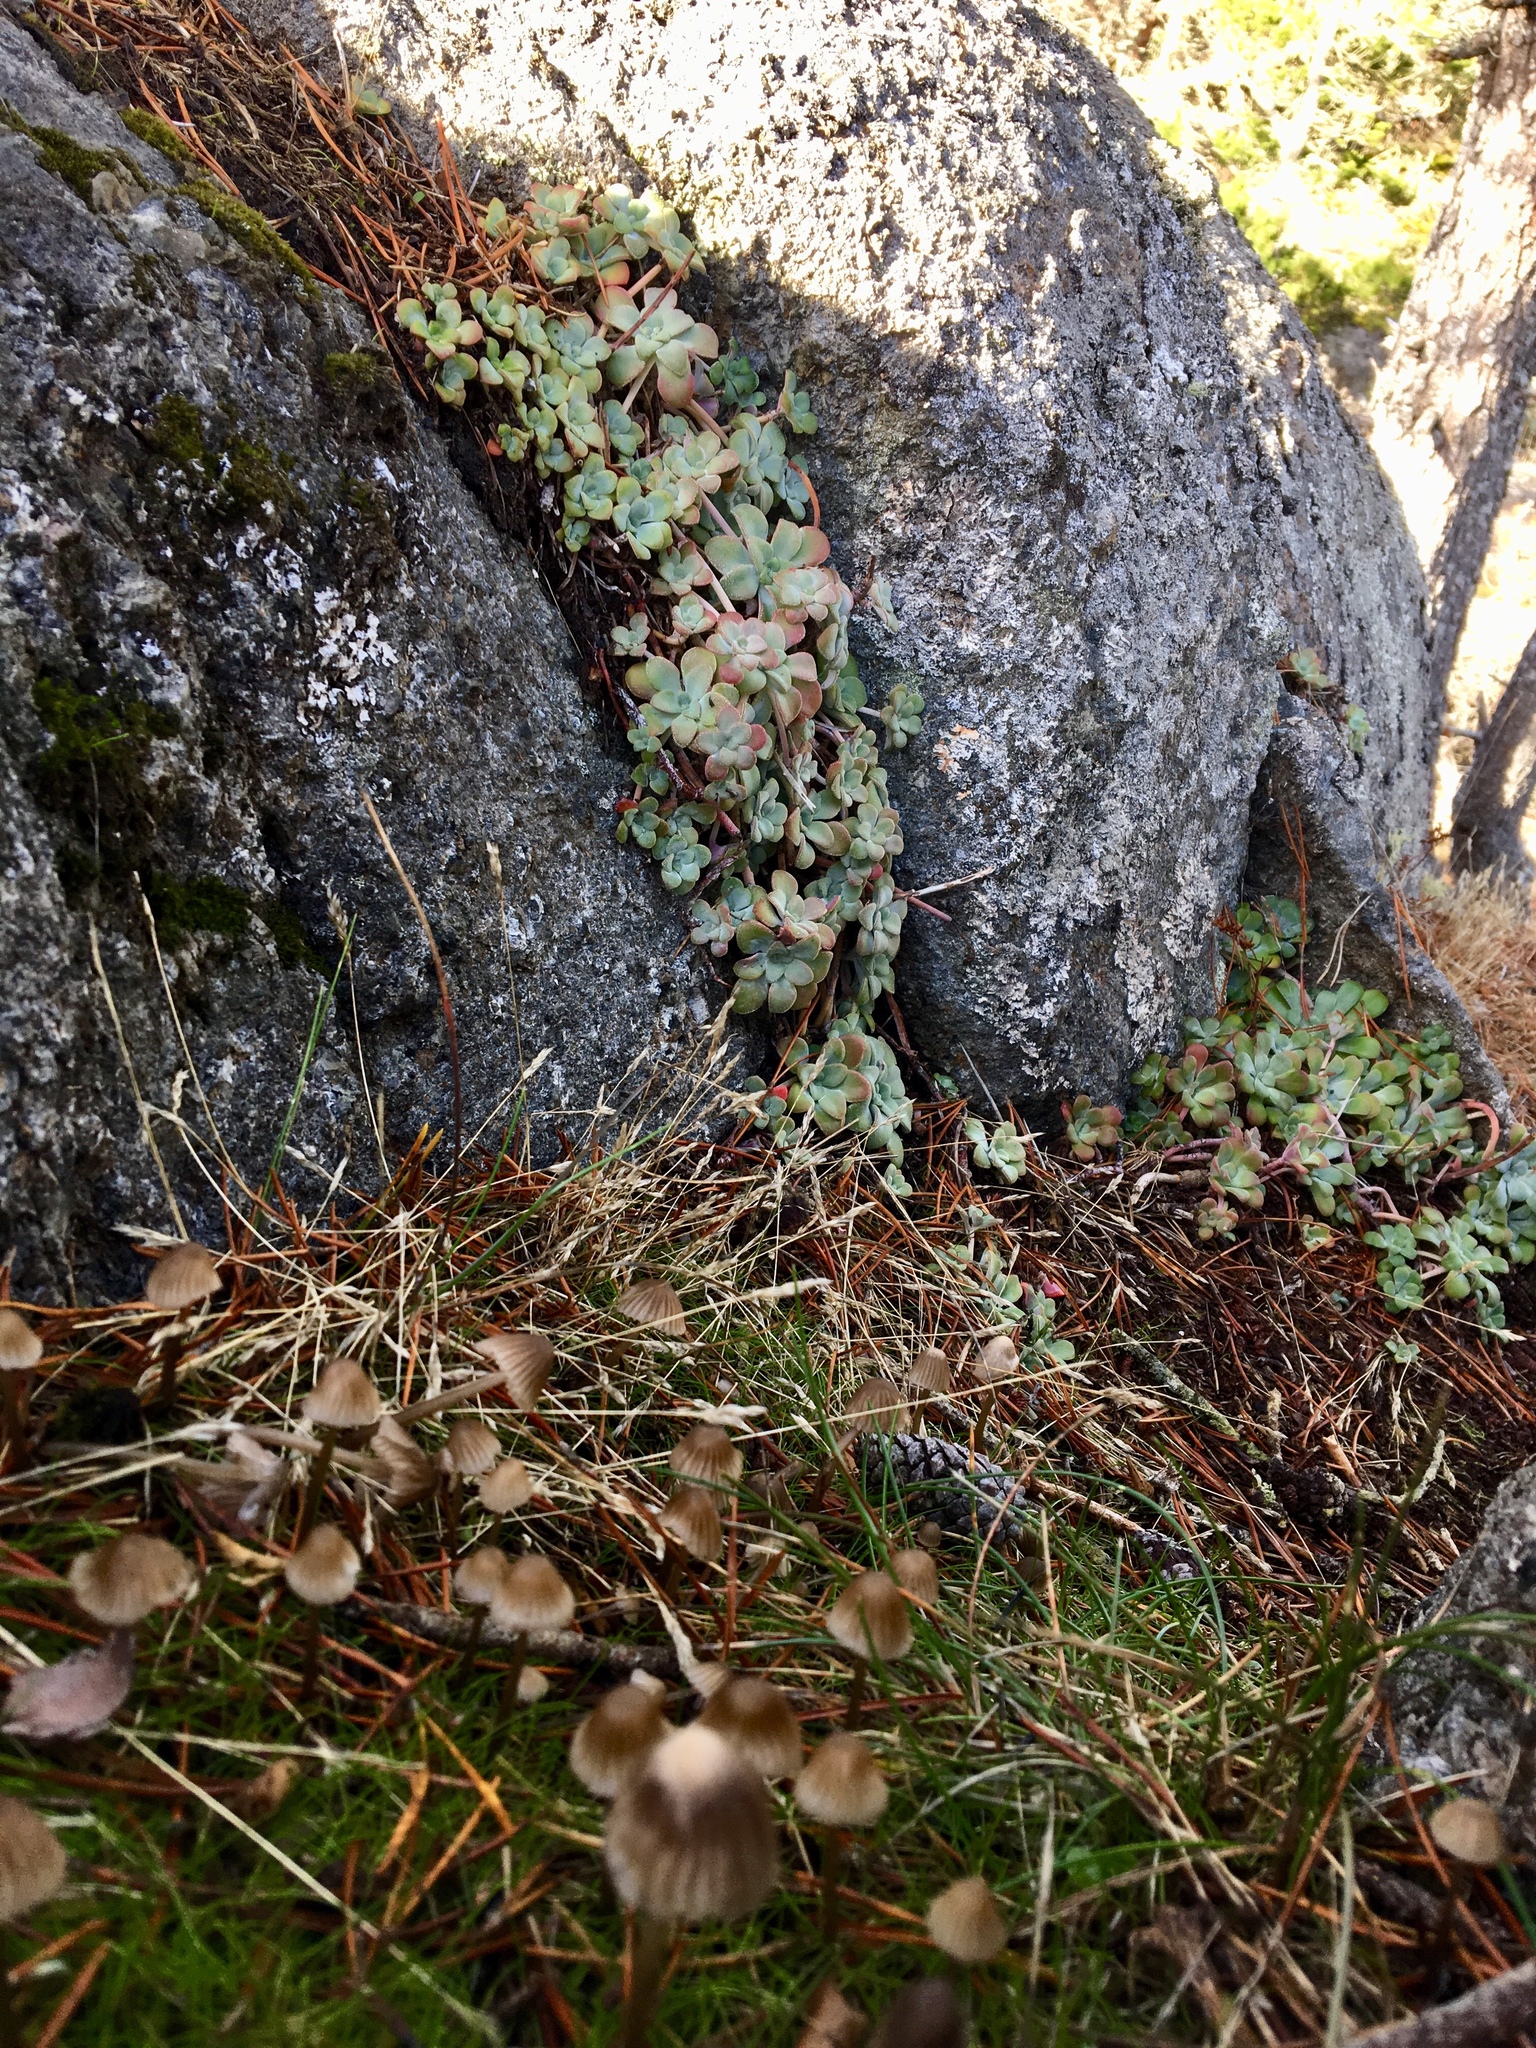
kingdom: Plantae
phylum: Tracheophyta
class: Magnoliopsida
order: Saxifragales
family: Crassulaceae
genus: Sedum
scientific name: Sedum spathulifolium
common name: Colorado stonecrop
